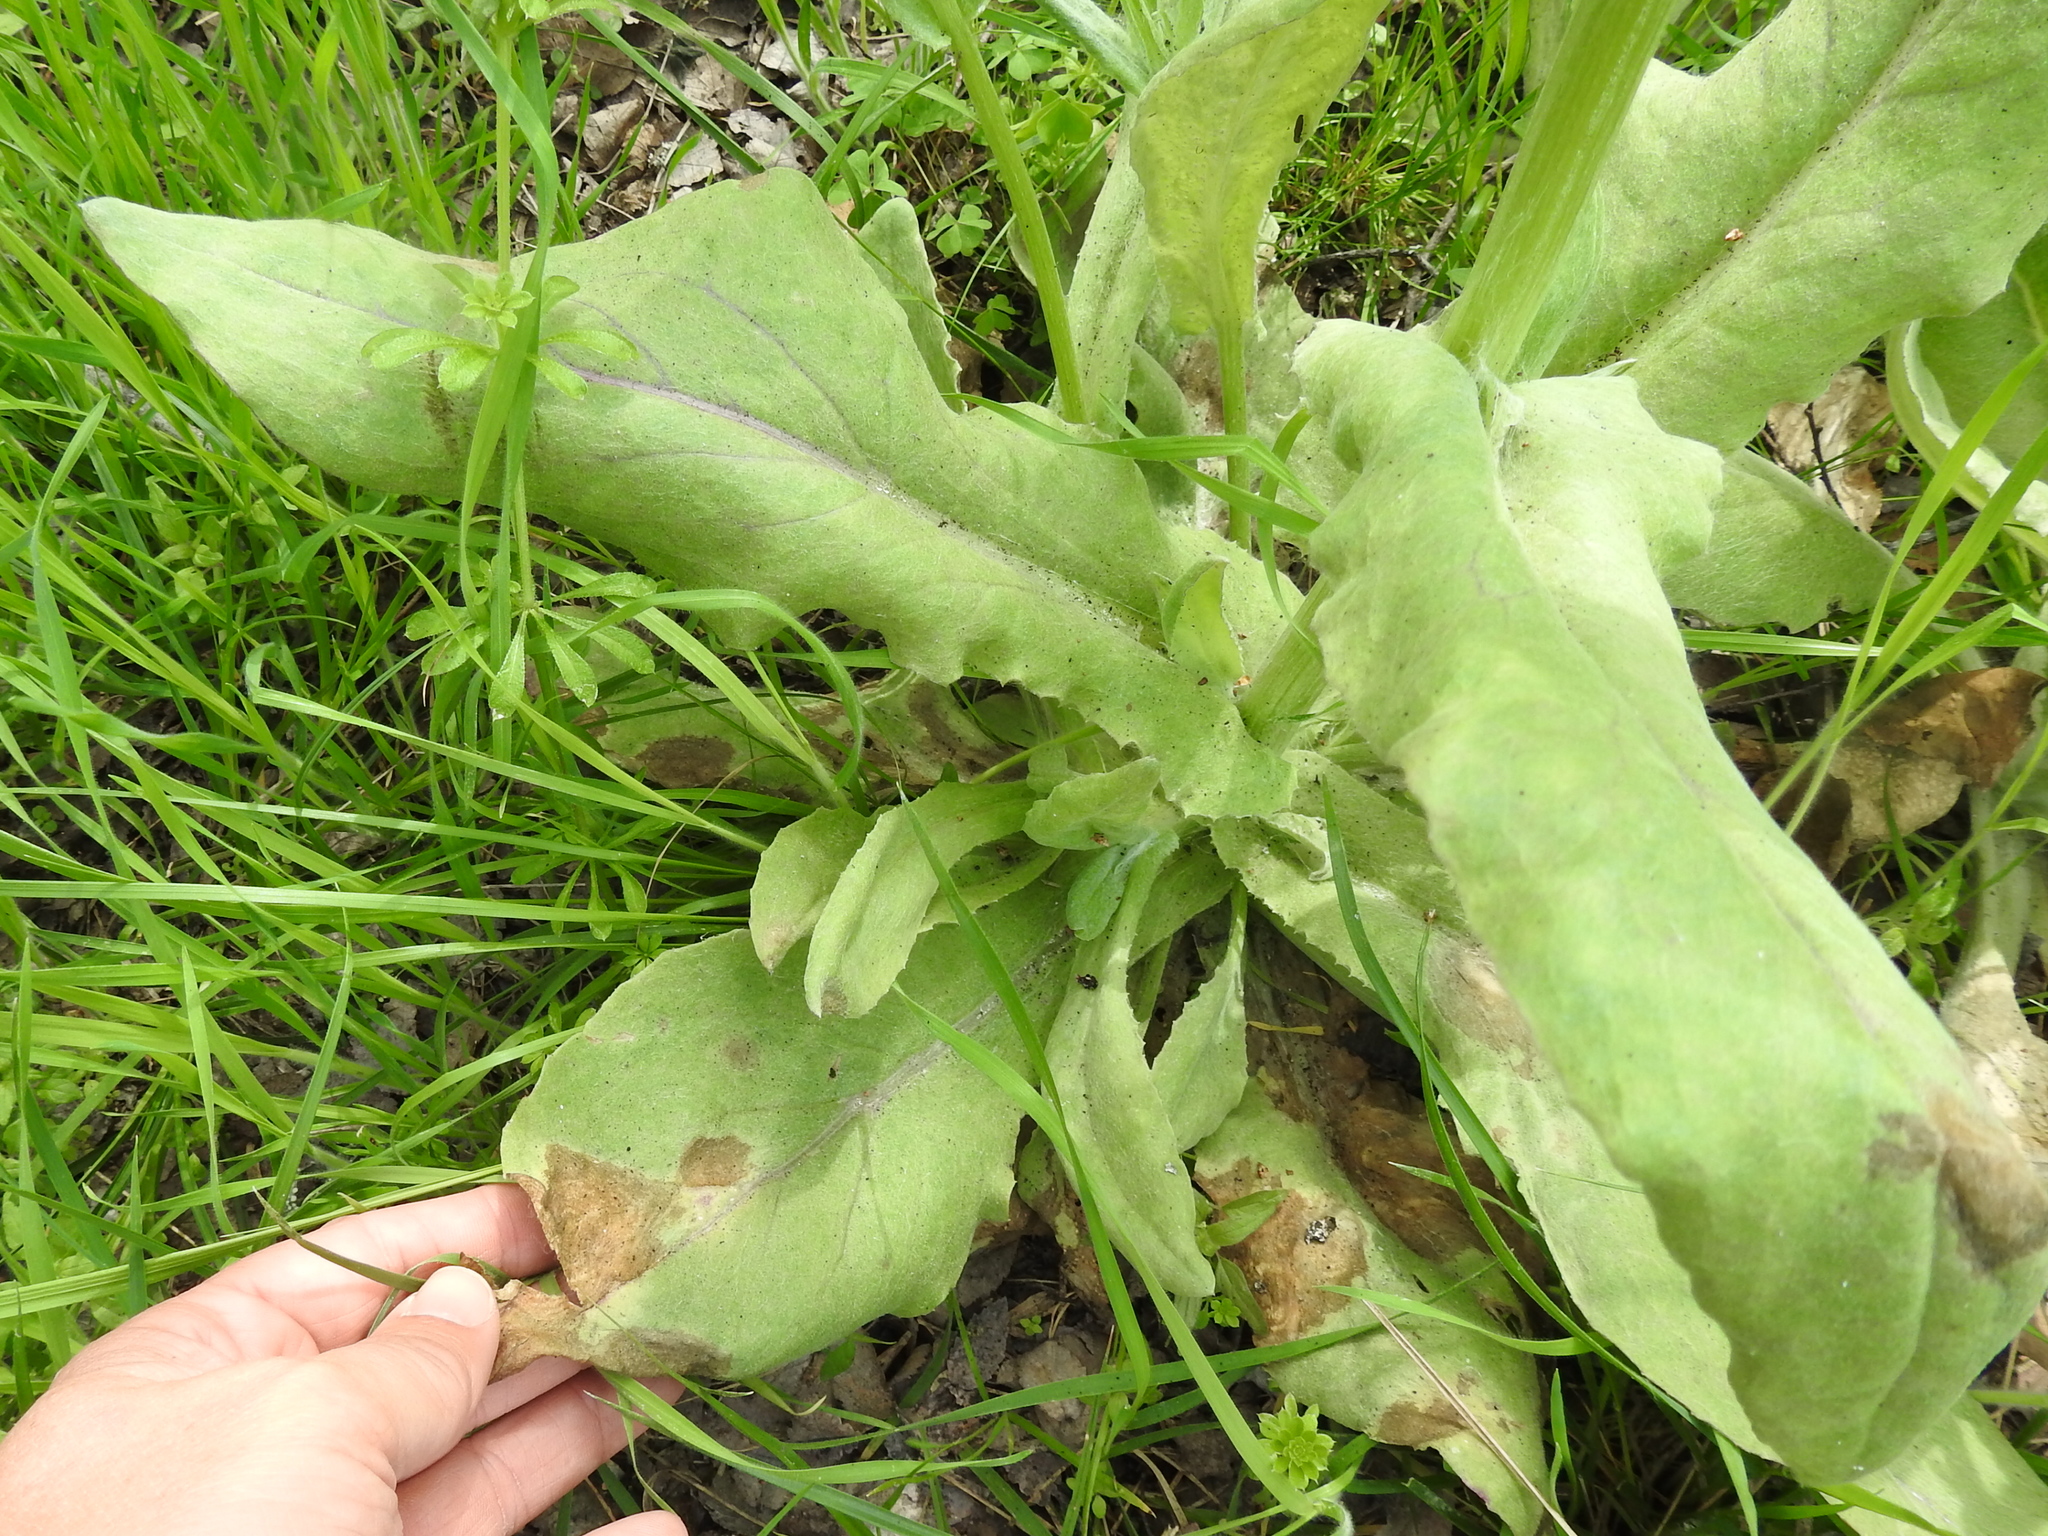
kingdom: Plantae
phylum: Tracheophyta
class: Magnoliopsida
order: Asterales
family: Asteraceae
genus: Senecio
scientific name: Senecio ampullaceus
